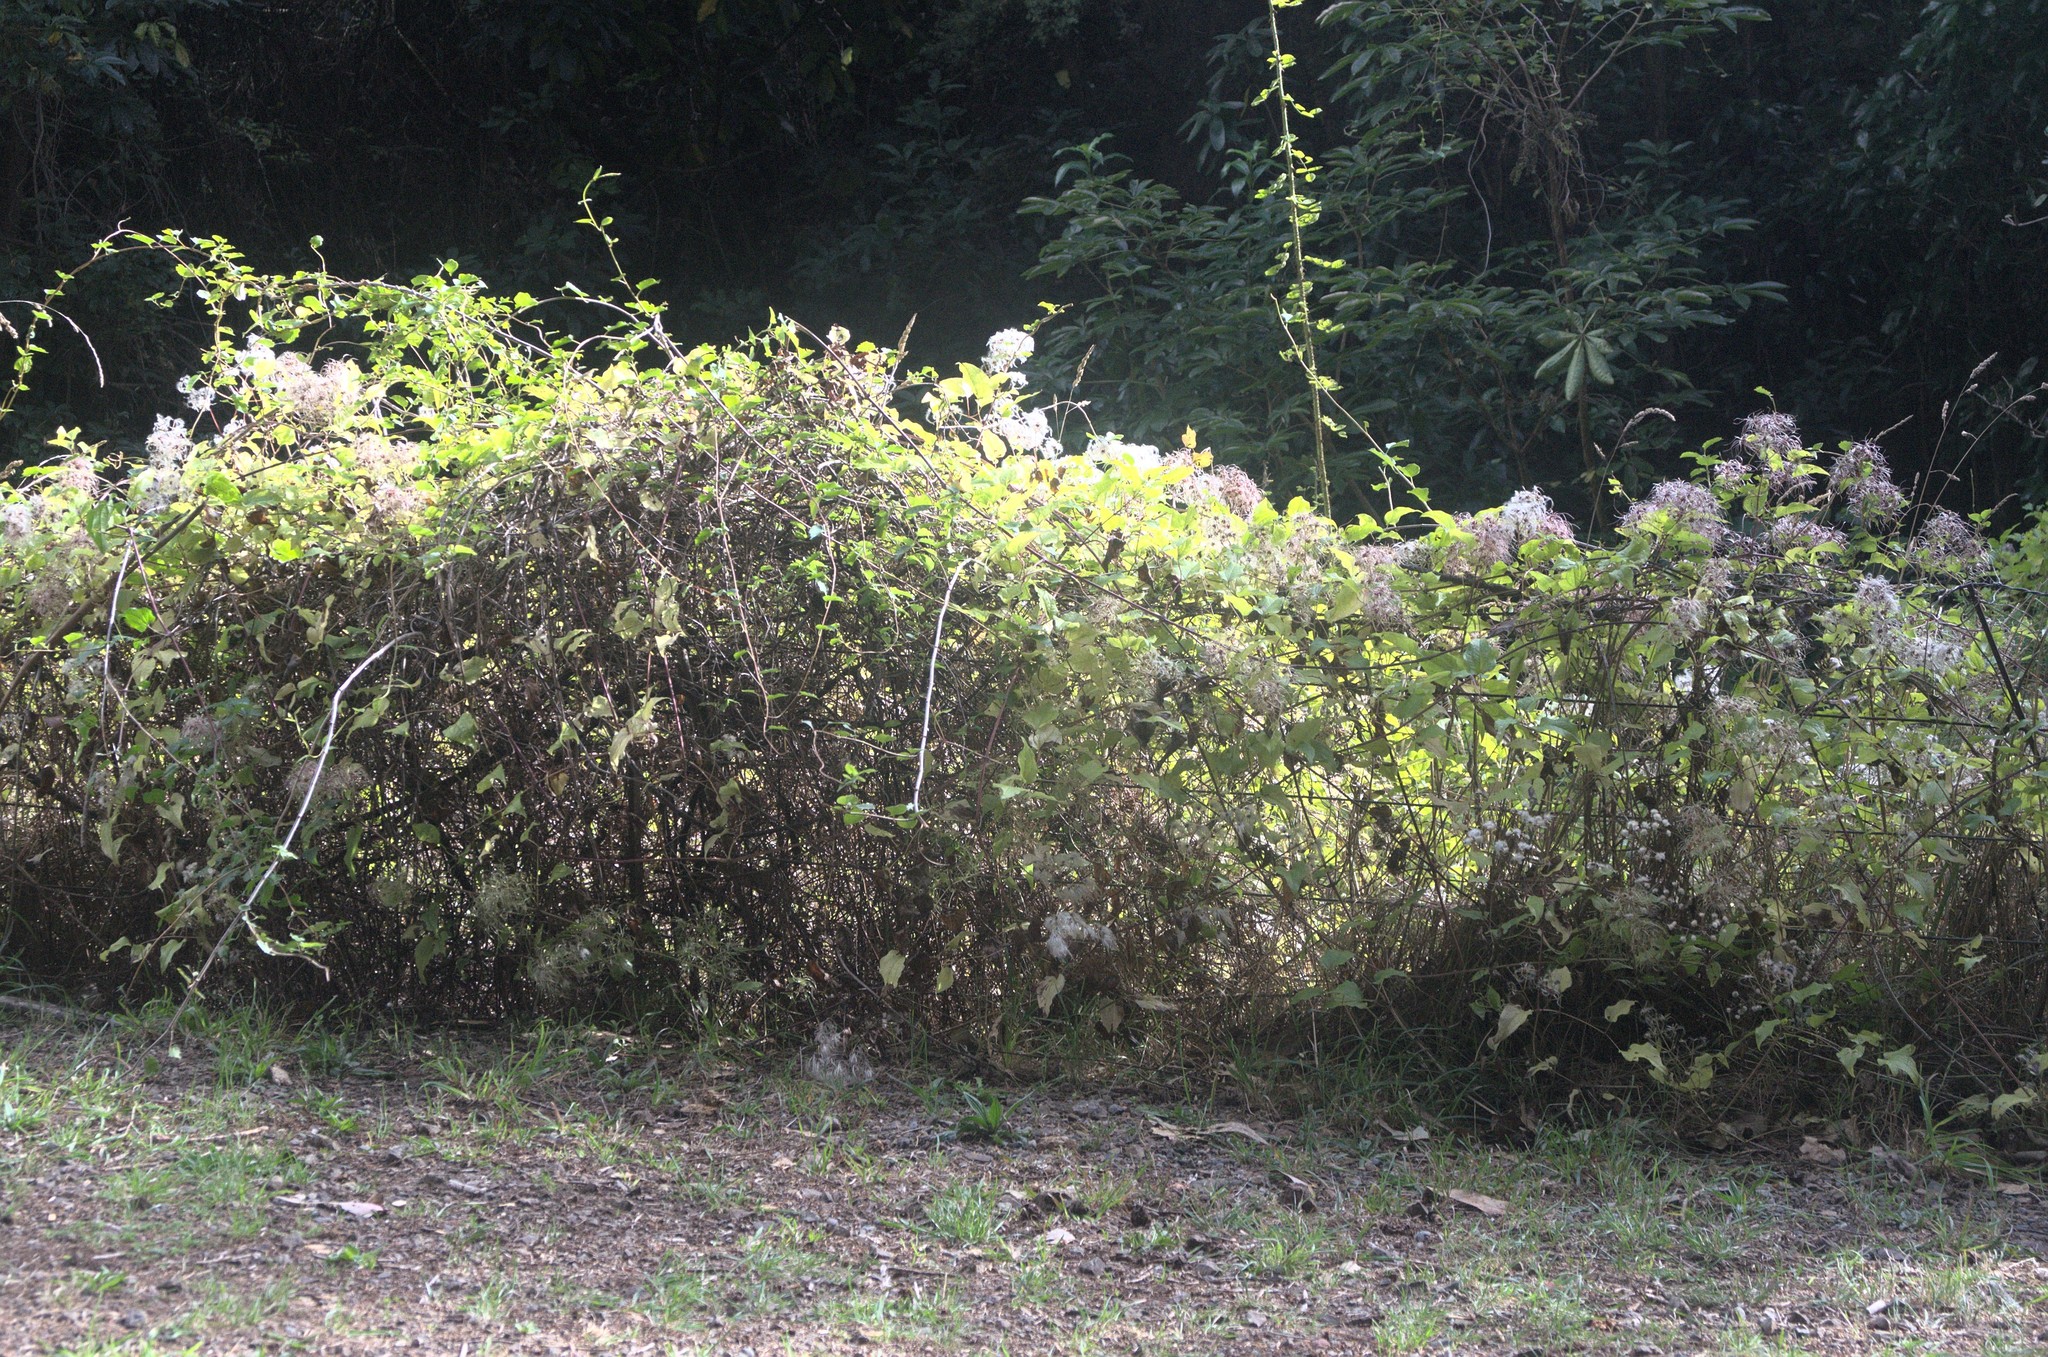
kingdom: Plantae
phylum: Tracheophyta
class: Magnoliopsida
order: Ranunculales
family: Ranunculaceae
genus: Clematis
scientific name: Clematis vitalba
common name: Evergreen clematis
